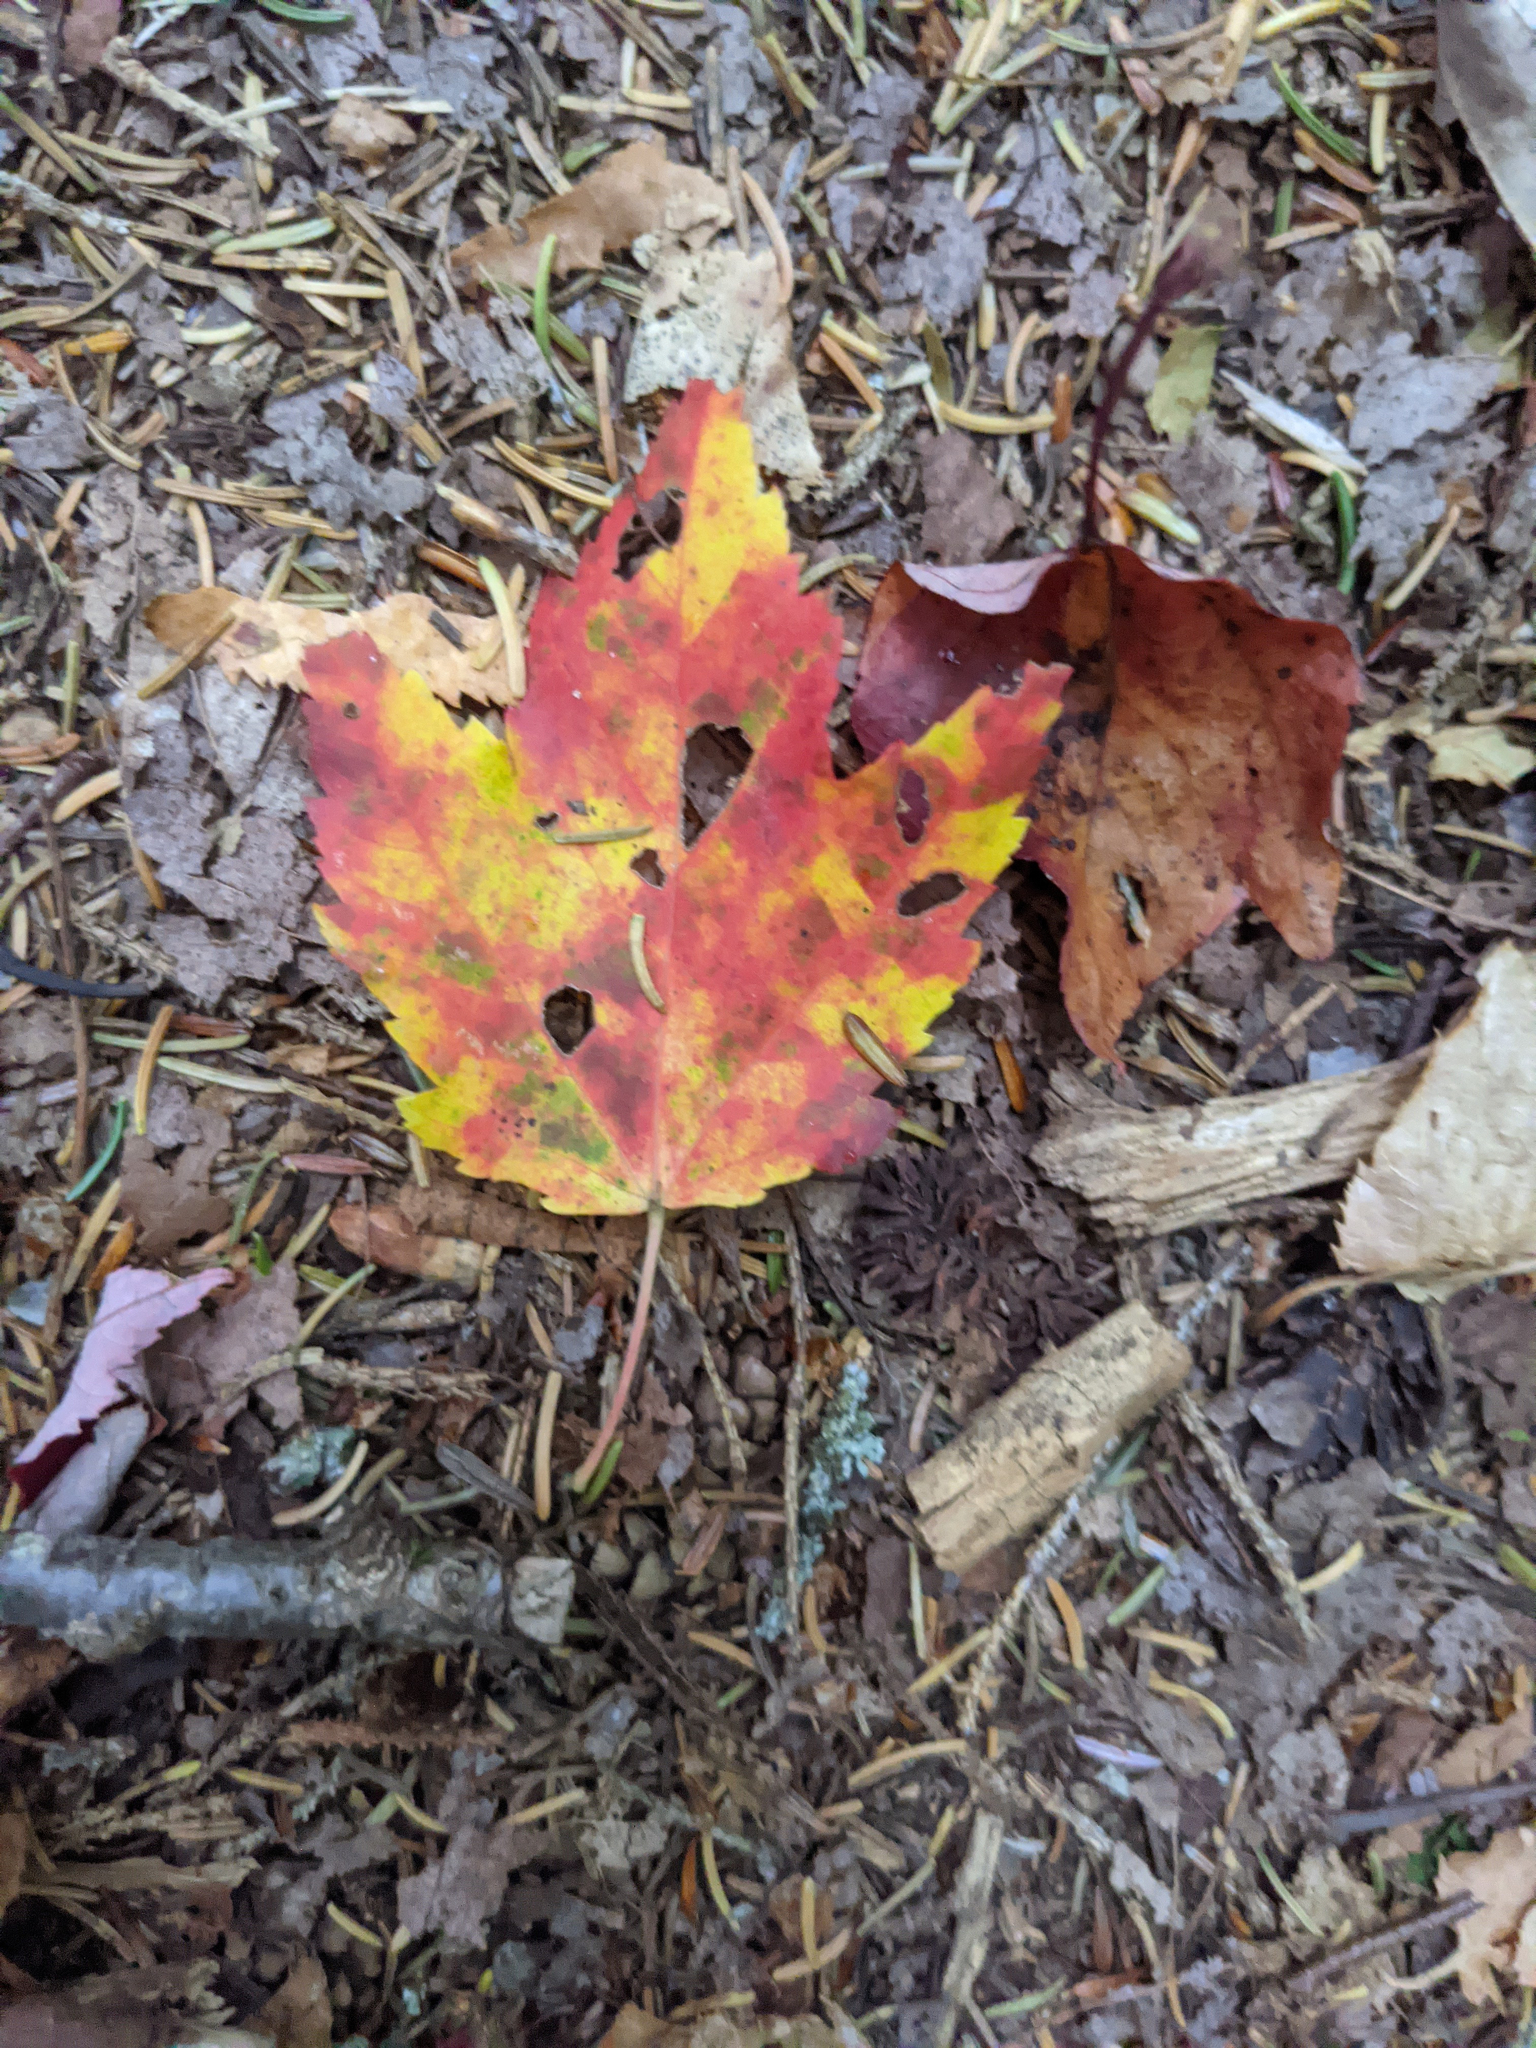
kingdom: Plantae
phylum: Tracheophyta
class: Magnoliopsida
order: Sapindales
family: Sapindaceae
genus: Acer
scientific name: Acer rubrum
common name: Red maple
